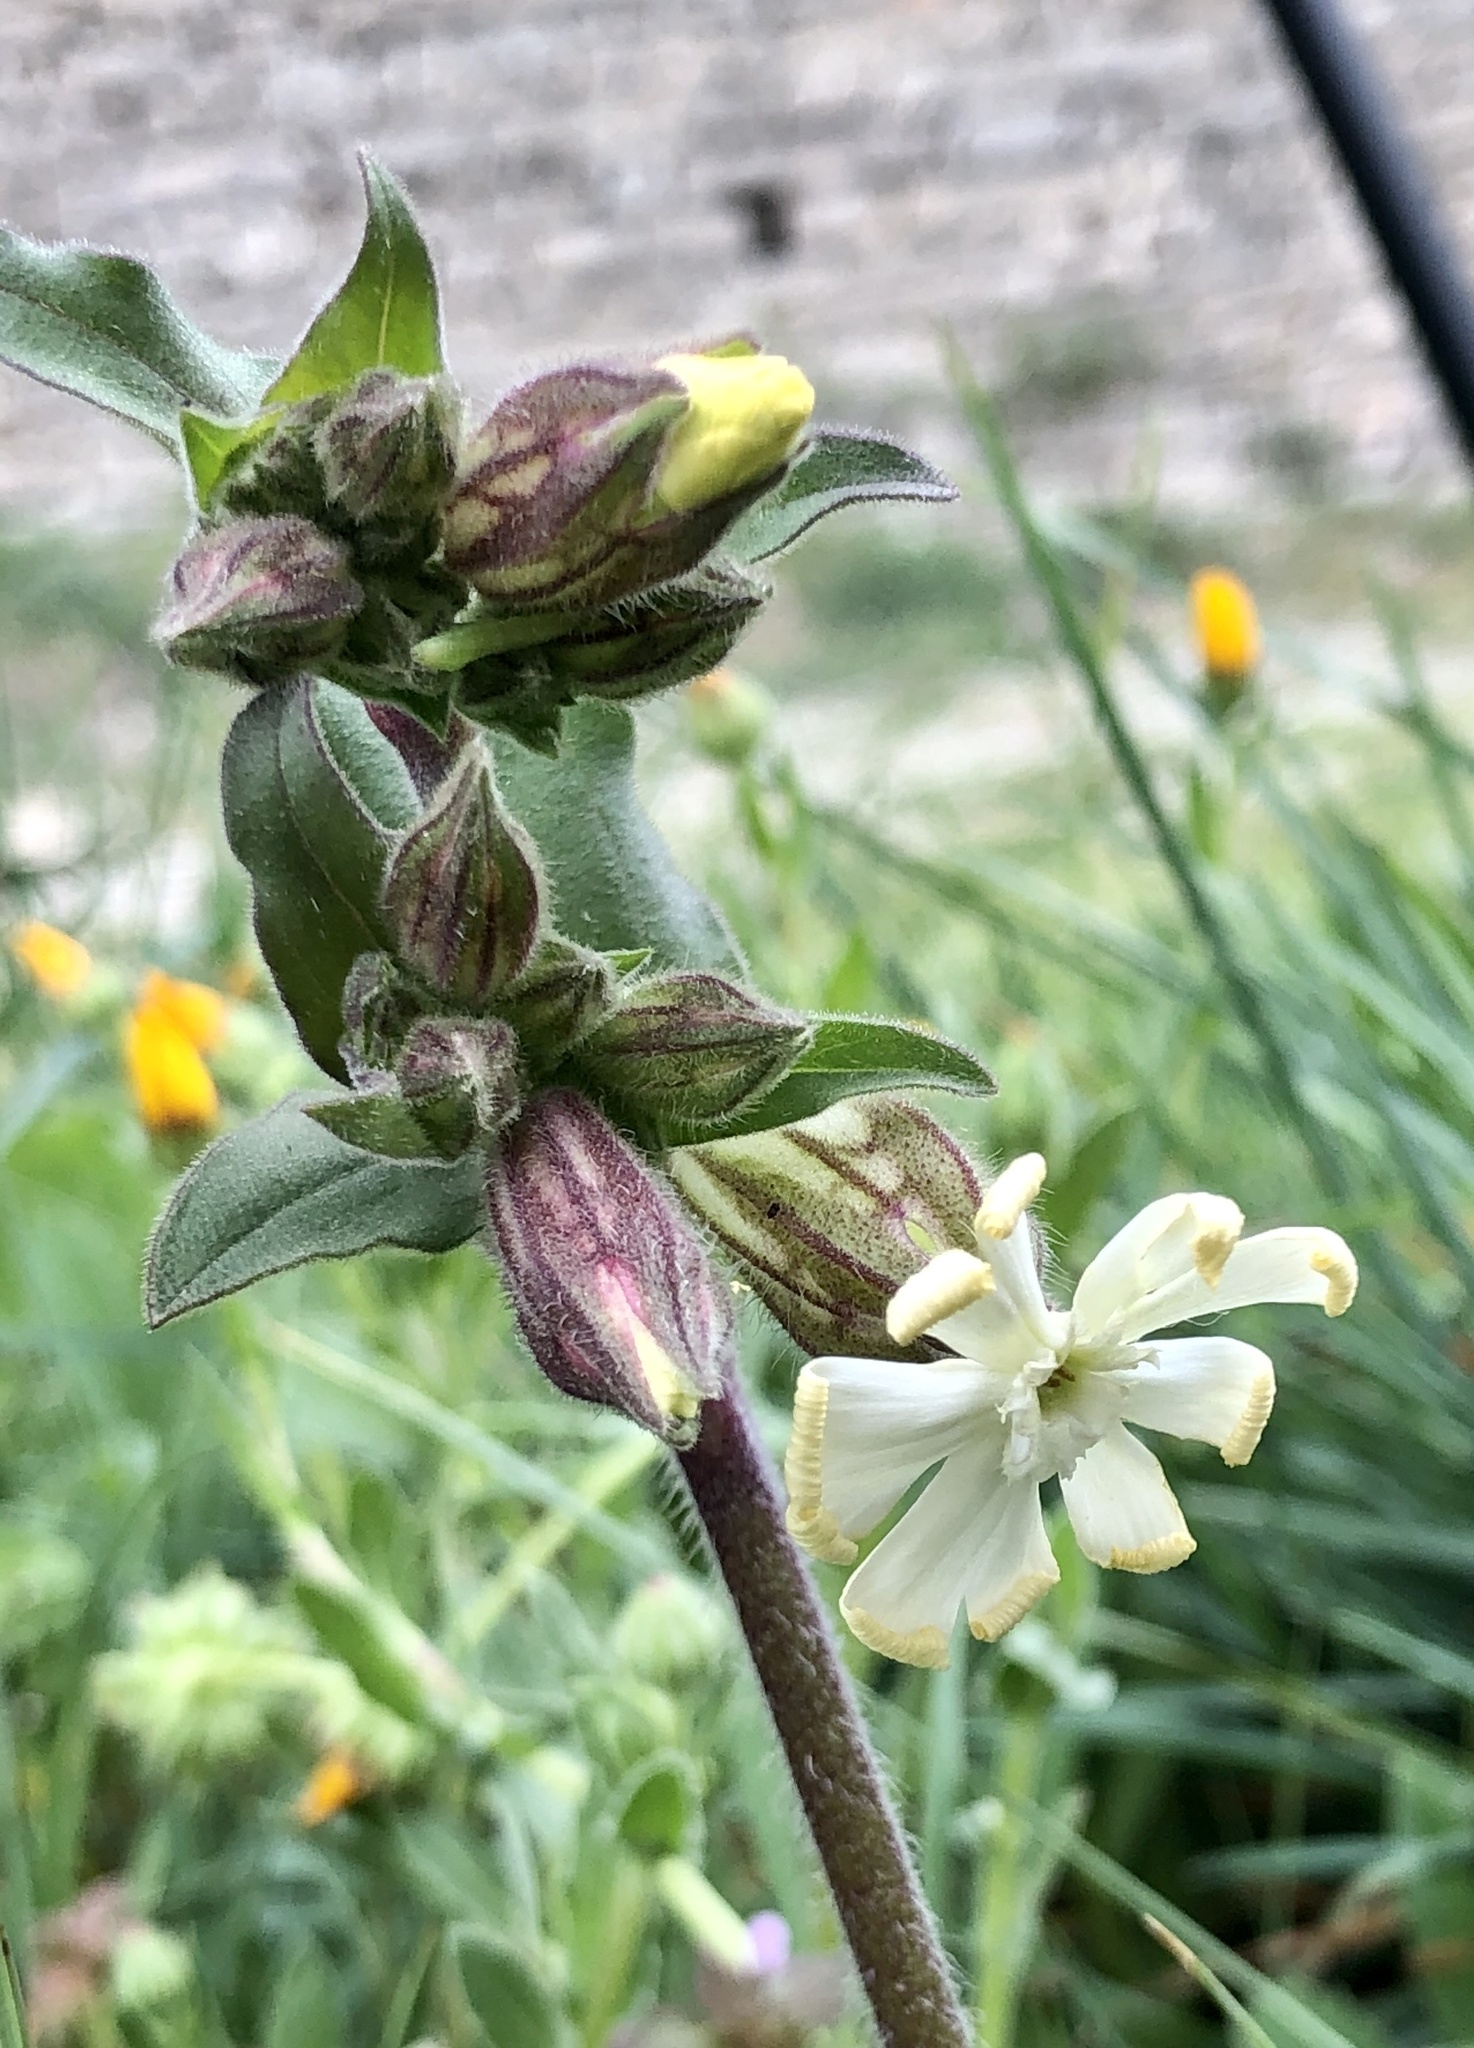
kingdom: Plantae
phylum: Tracheophyta
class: Magnoliopsida
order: Caryophyllales
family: Caryophyllaceae
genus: Silene
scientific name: Silene latifolia
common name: White campion
